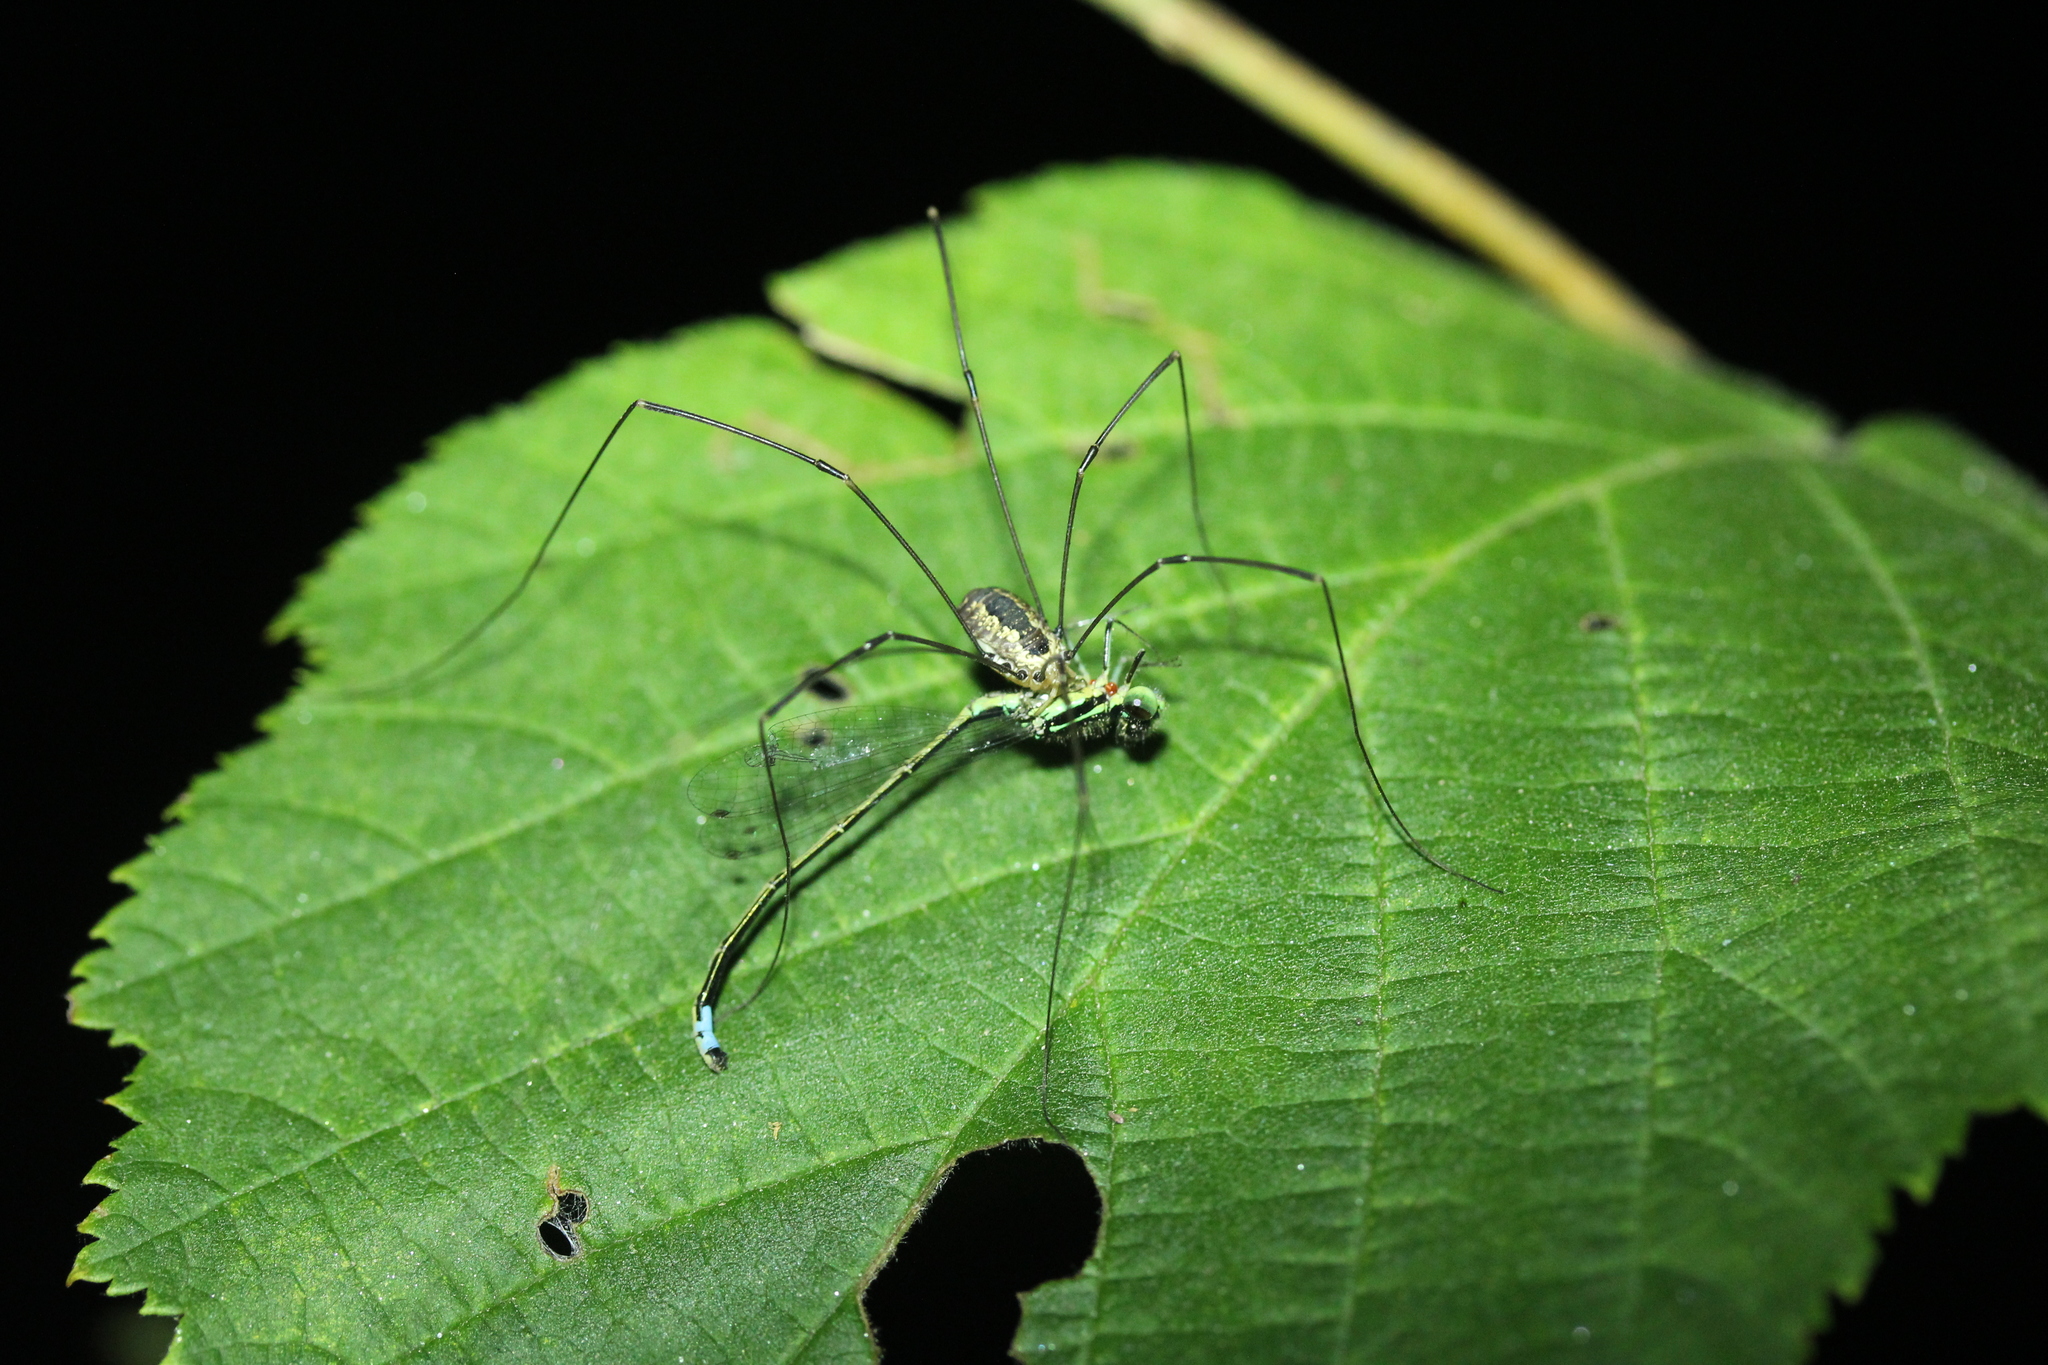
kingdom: Animalia
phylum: Arthropoda
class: Insecta
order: Odonata
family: Coenagrionidae
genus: Ischnura
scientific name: Ischnura verticalis
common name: Eastern forktail
